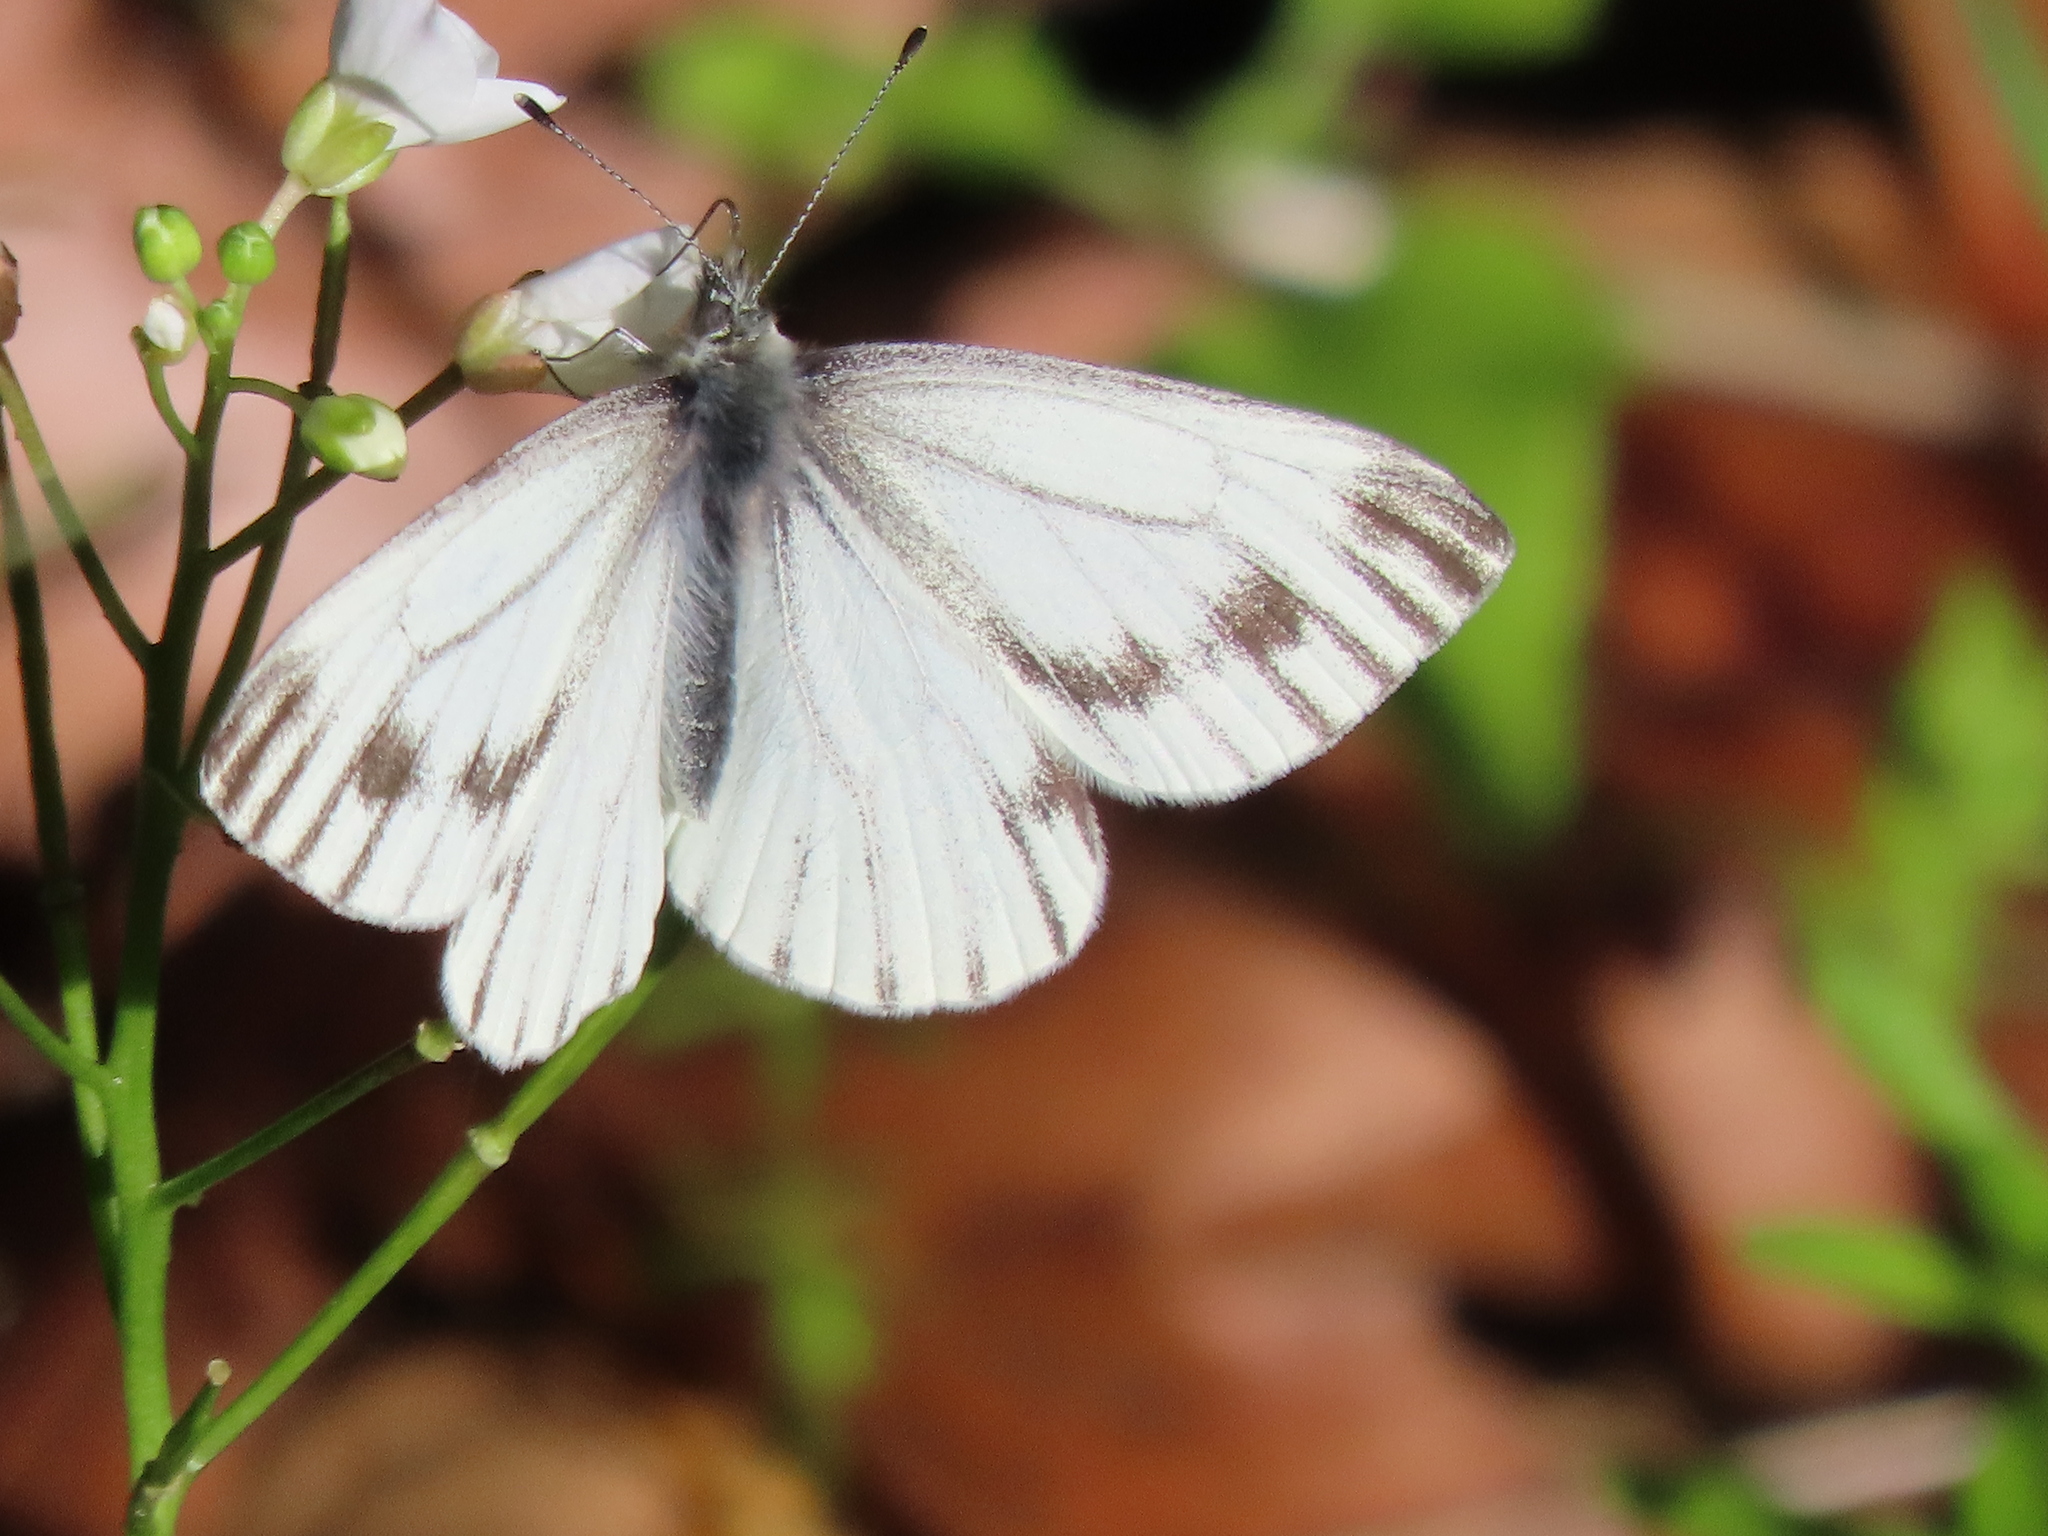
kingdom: Animalia
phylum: Arthropoda
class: Insecta
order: Lepidoptera
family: Pieridae
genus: Pieris
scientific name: Pieris marginalis
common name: Margined white
